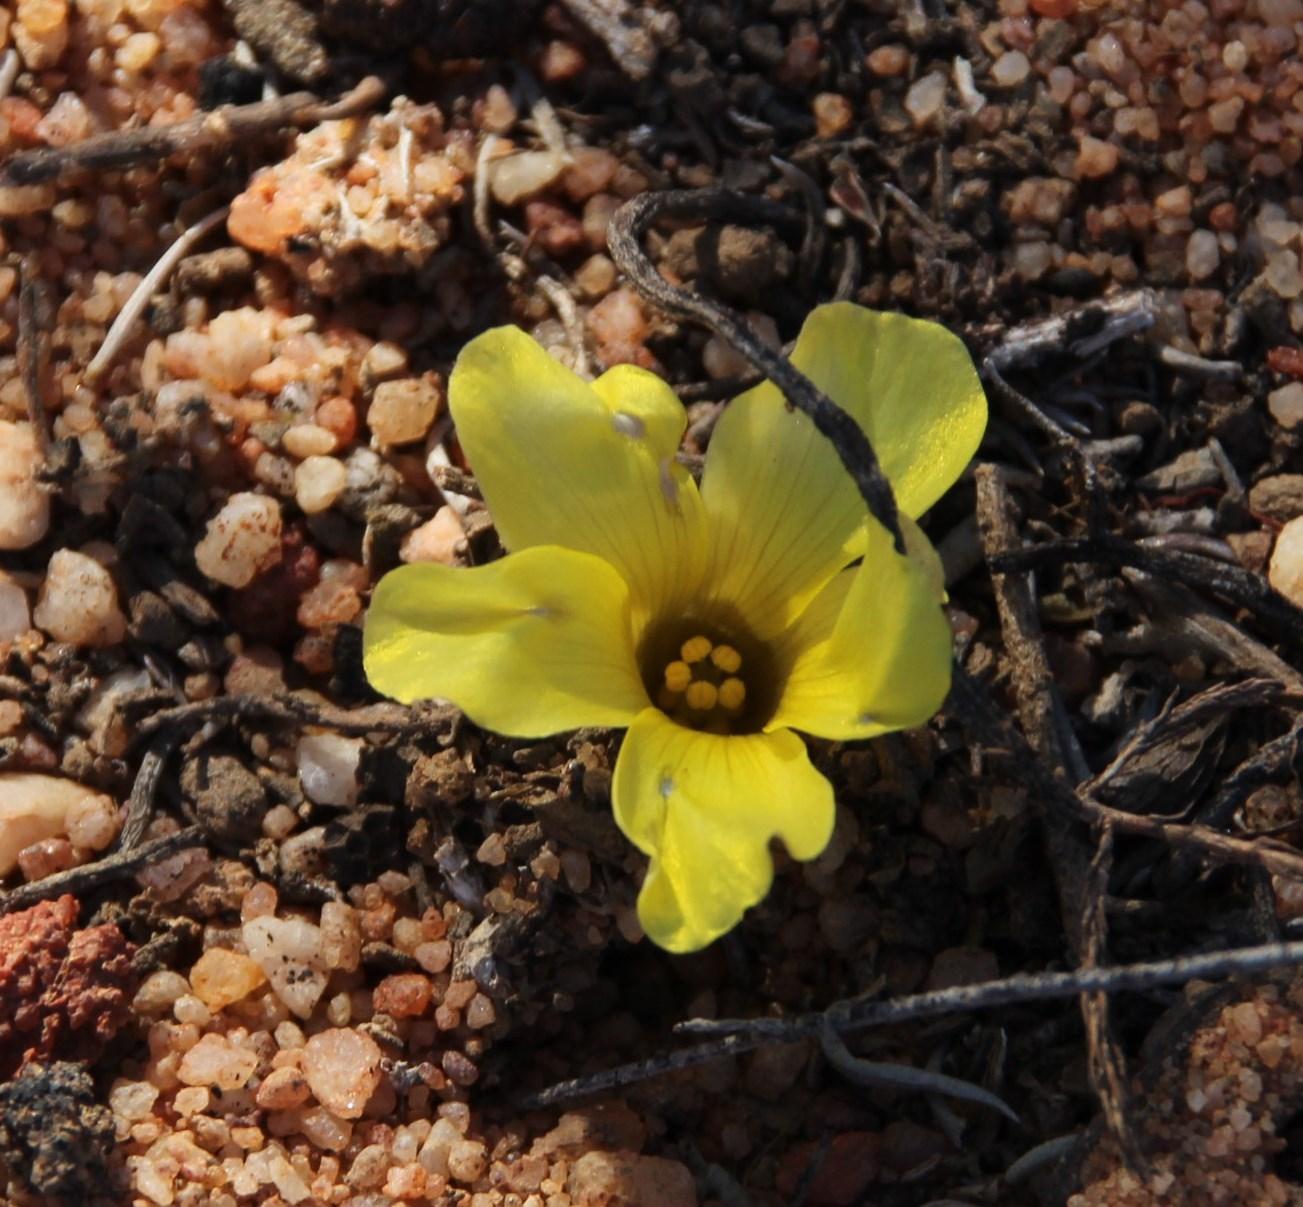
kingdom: Plantae
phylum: Tracheophyta
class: Magnoliopsida
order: Oxalidales
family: Oxalidaceae
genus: Oxalis
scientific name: Oxalis flava
